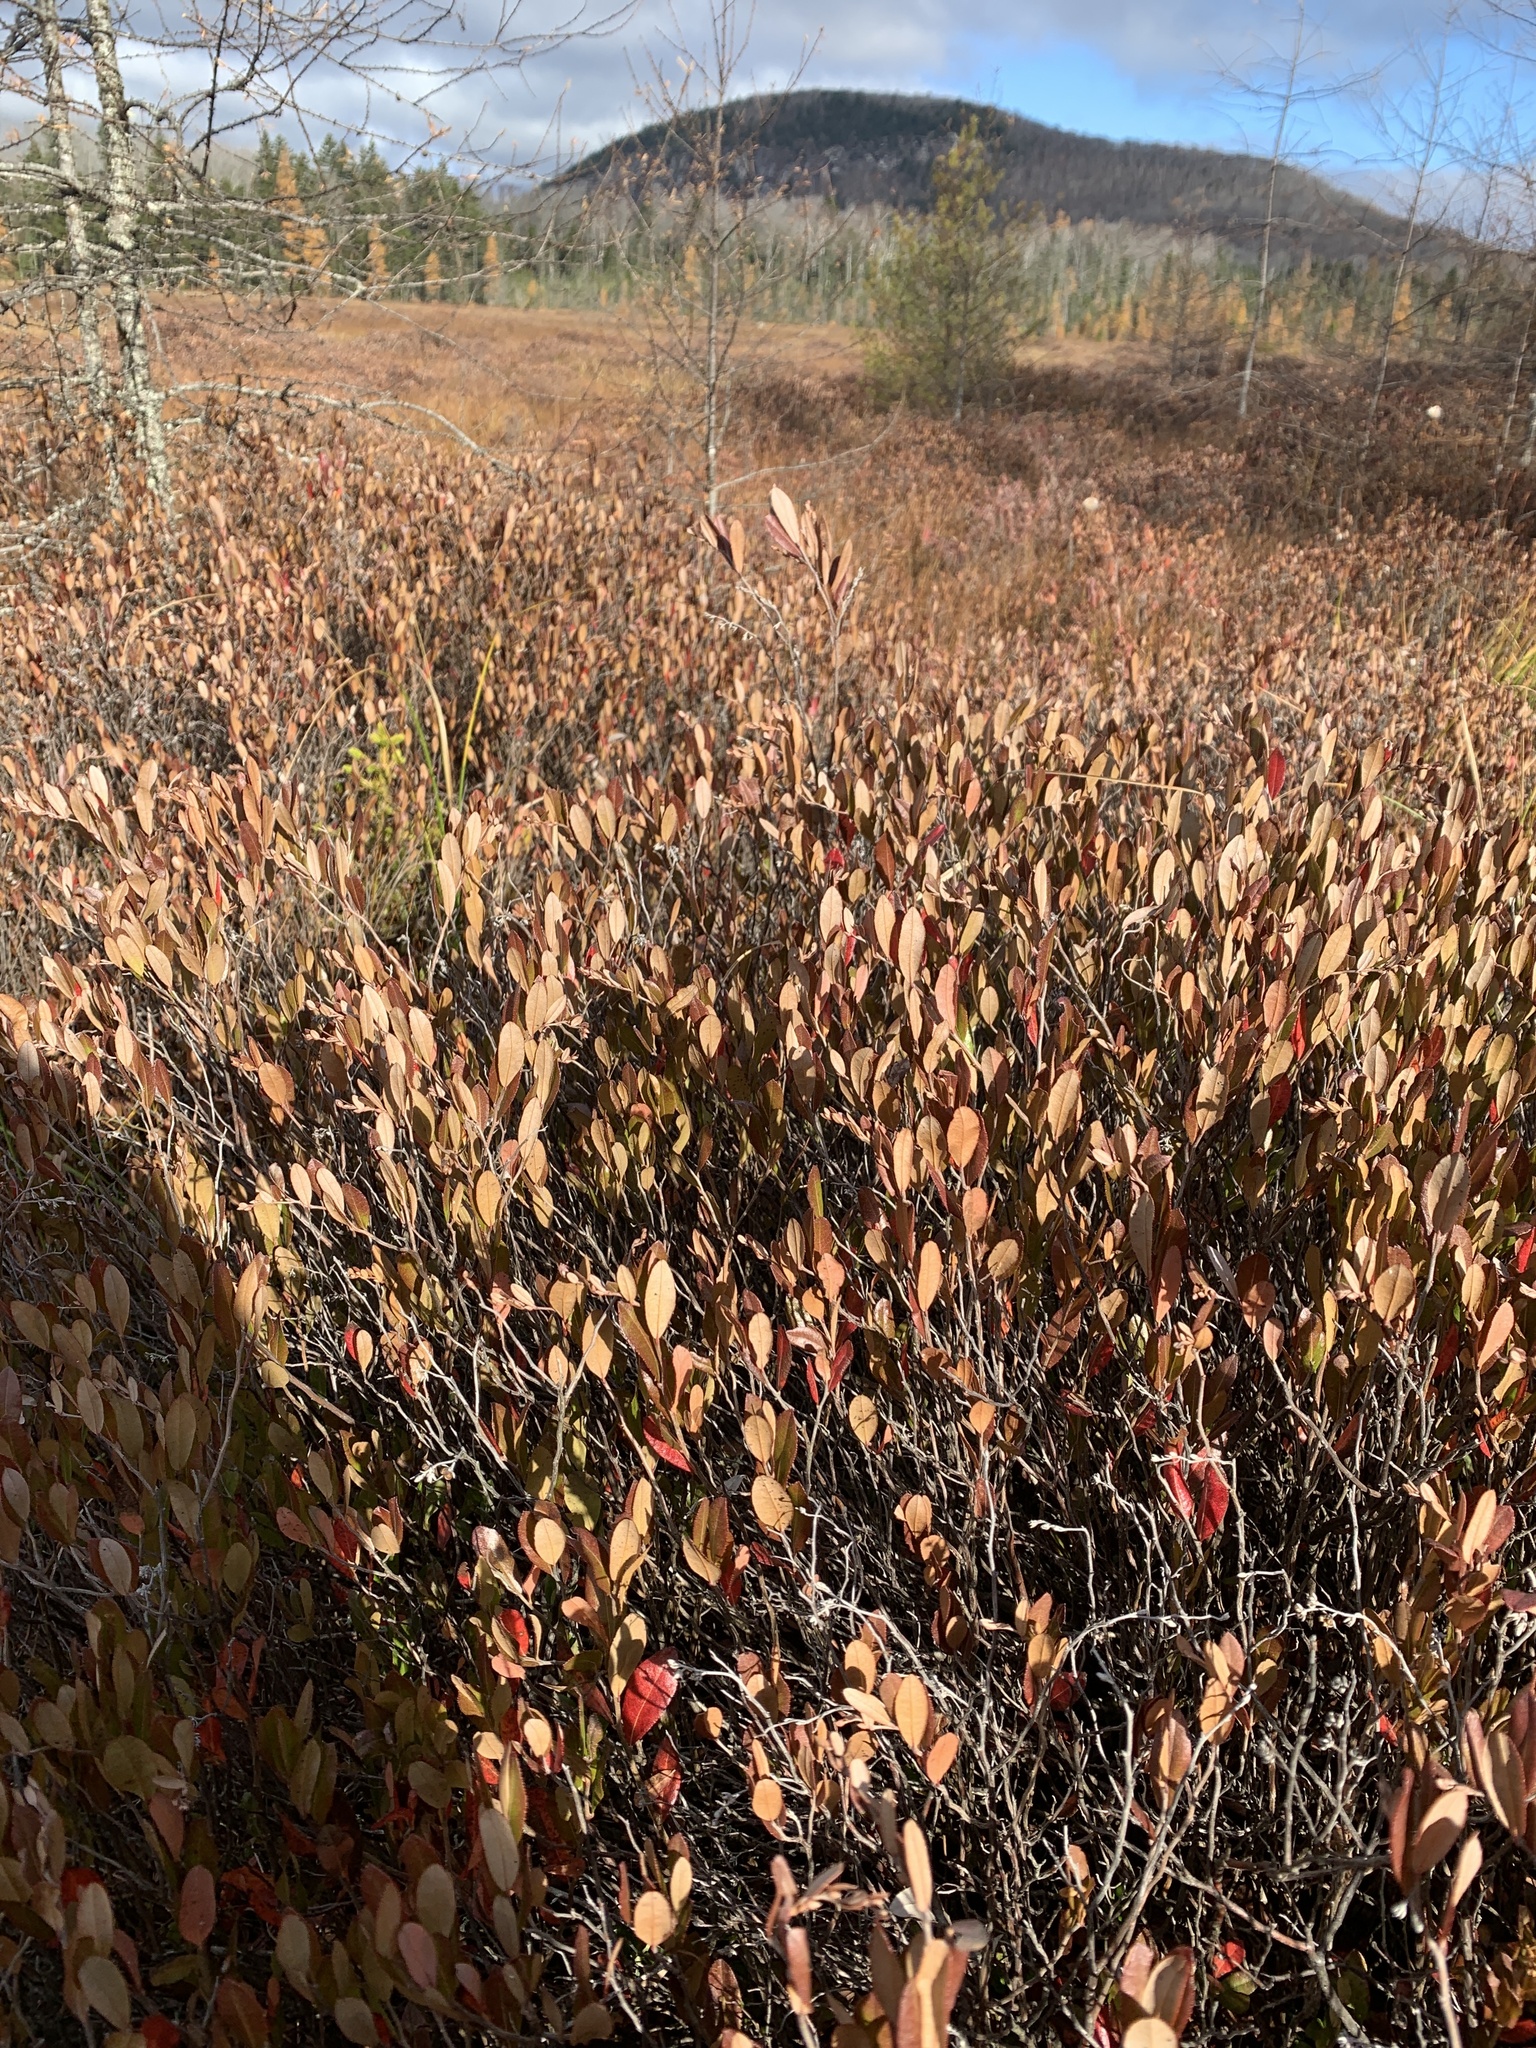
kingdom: Plantae
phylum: Tracheophyta
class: Magnoliopsida
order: Ericales
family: Ericaceae
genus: Chamaedaphne
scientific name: Chamaedaphne calyculata
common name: Leatherleaf
